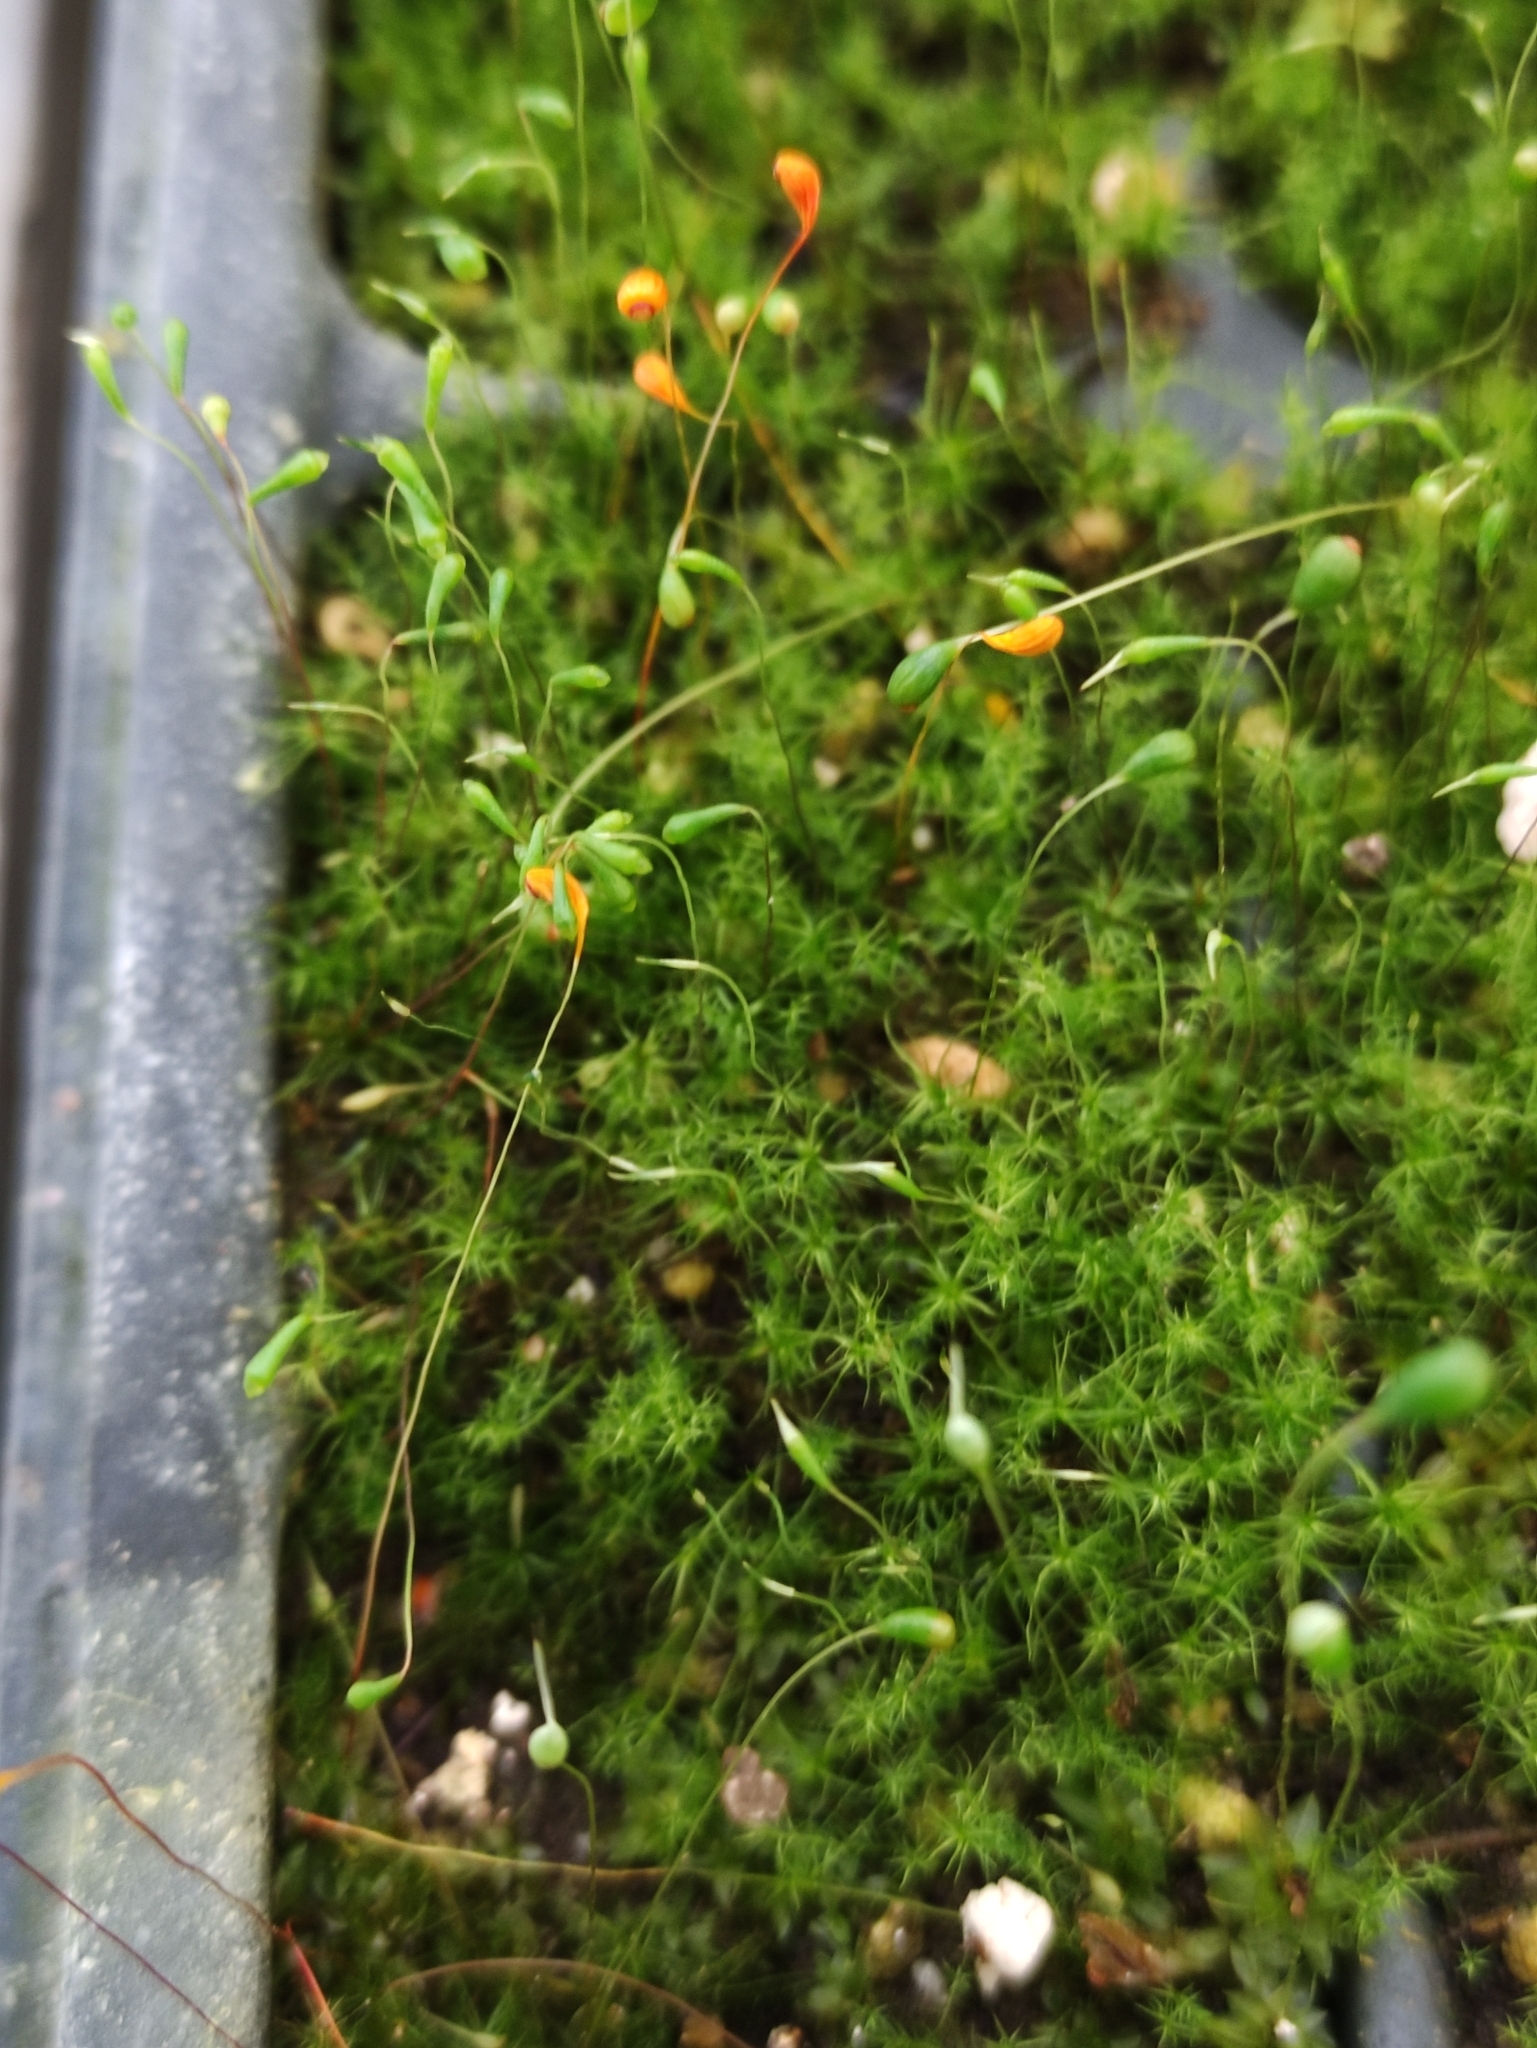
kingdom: Plantae
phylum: Bryophyta
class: Bryopsida
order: Funariales
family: Funariaceae
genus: Funaria
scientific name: Funaria hygrometrica
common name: Common cord moss
